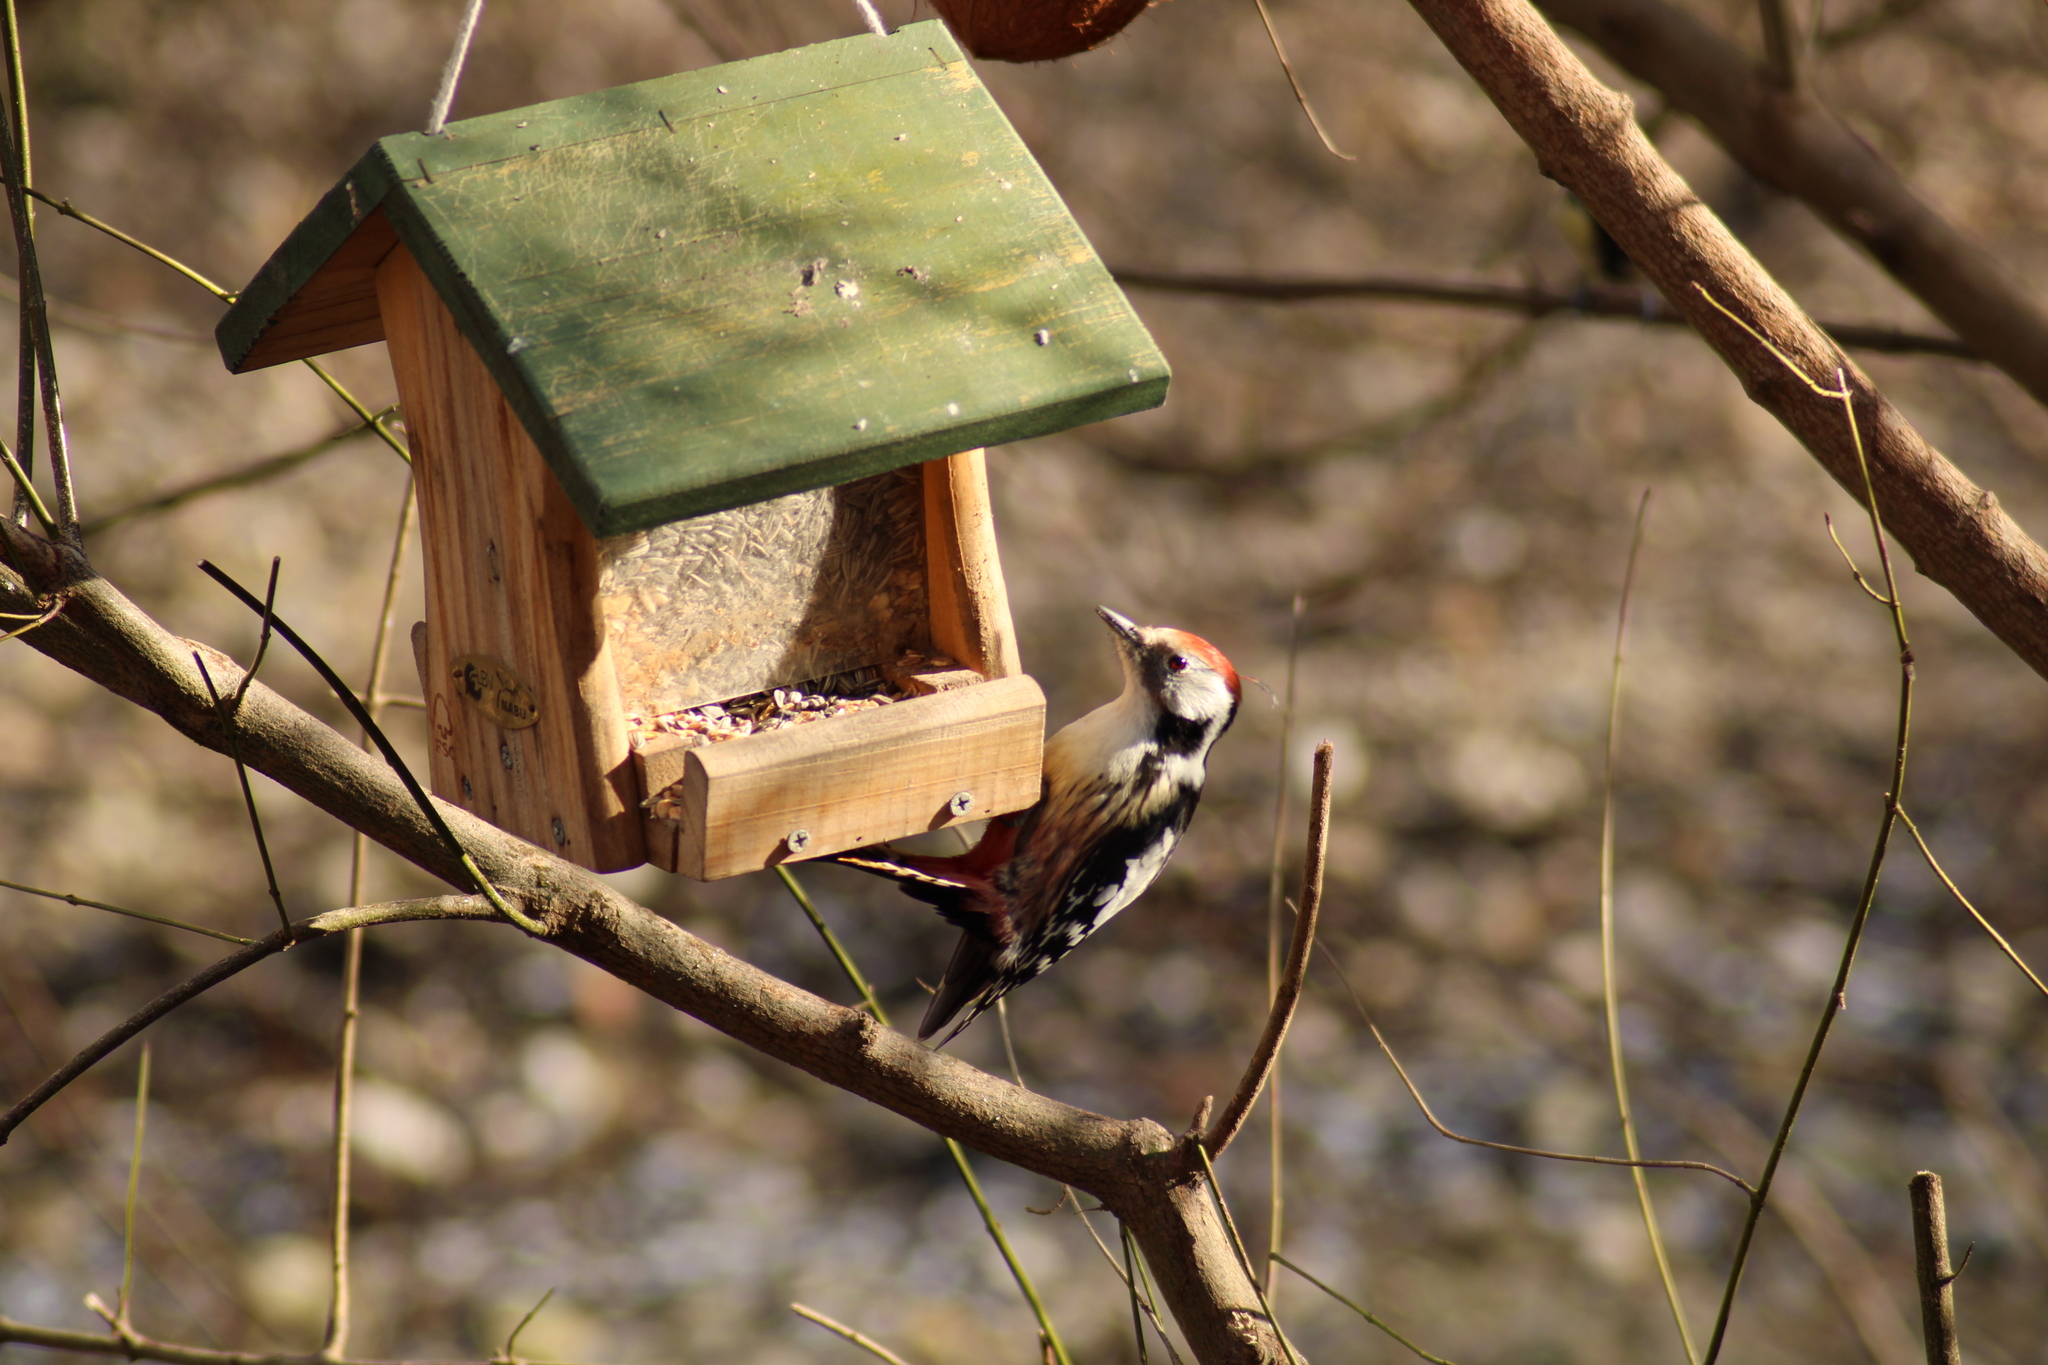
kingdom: Animalia
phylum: Chordata
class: Aves
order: Piciformes
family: Picidae
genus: Dendrocoptes
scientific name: Dendrocoptes medius
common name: Middle spotted woodpecker
